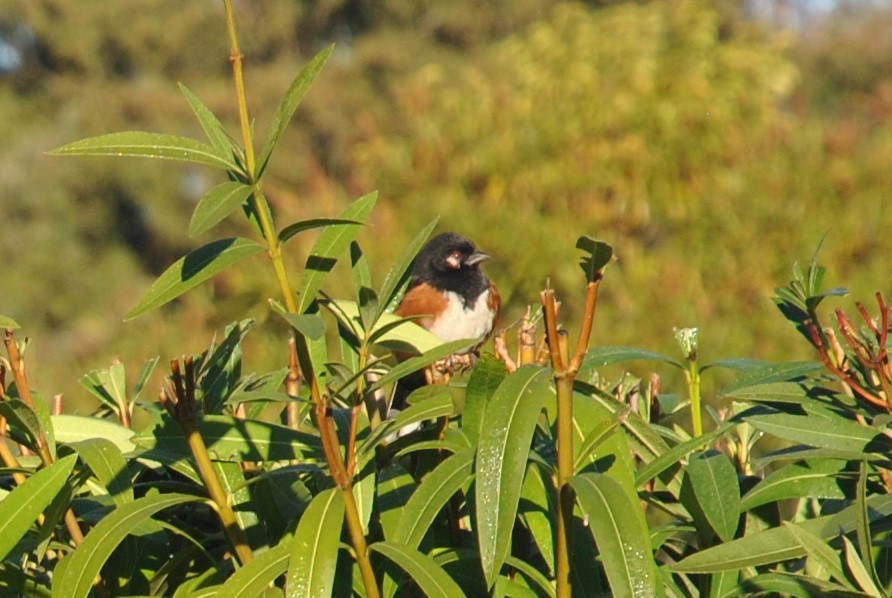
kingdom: Animalia
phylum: Chordata
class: Aves
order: Passeriformes
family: Passerellidae
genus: Pipilo
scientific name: Pipilo maculatus
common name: Spotted towhee
